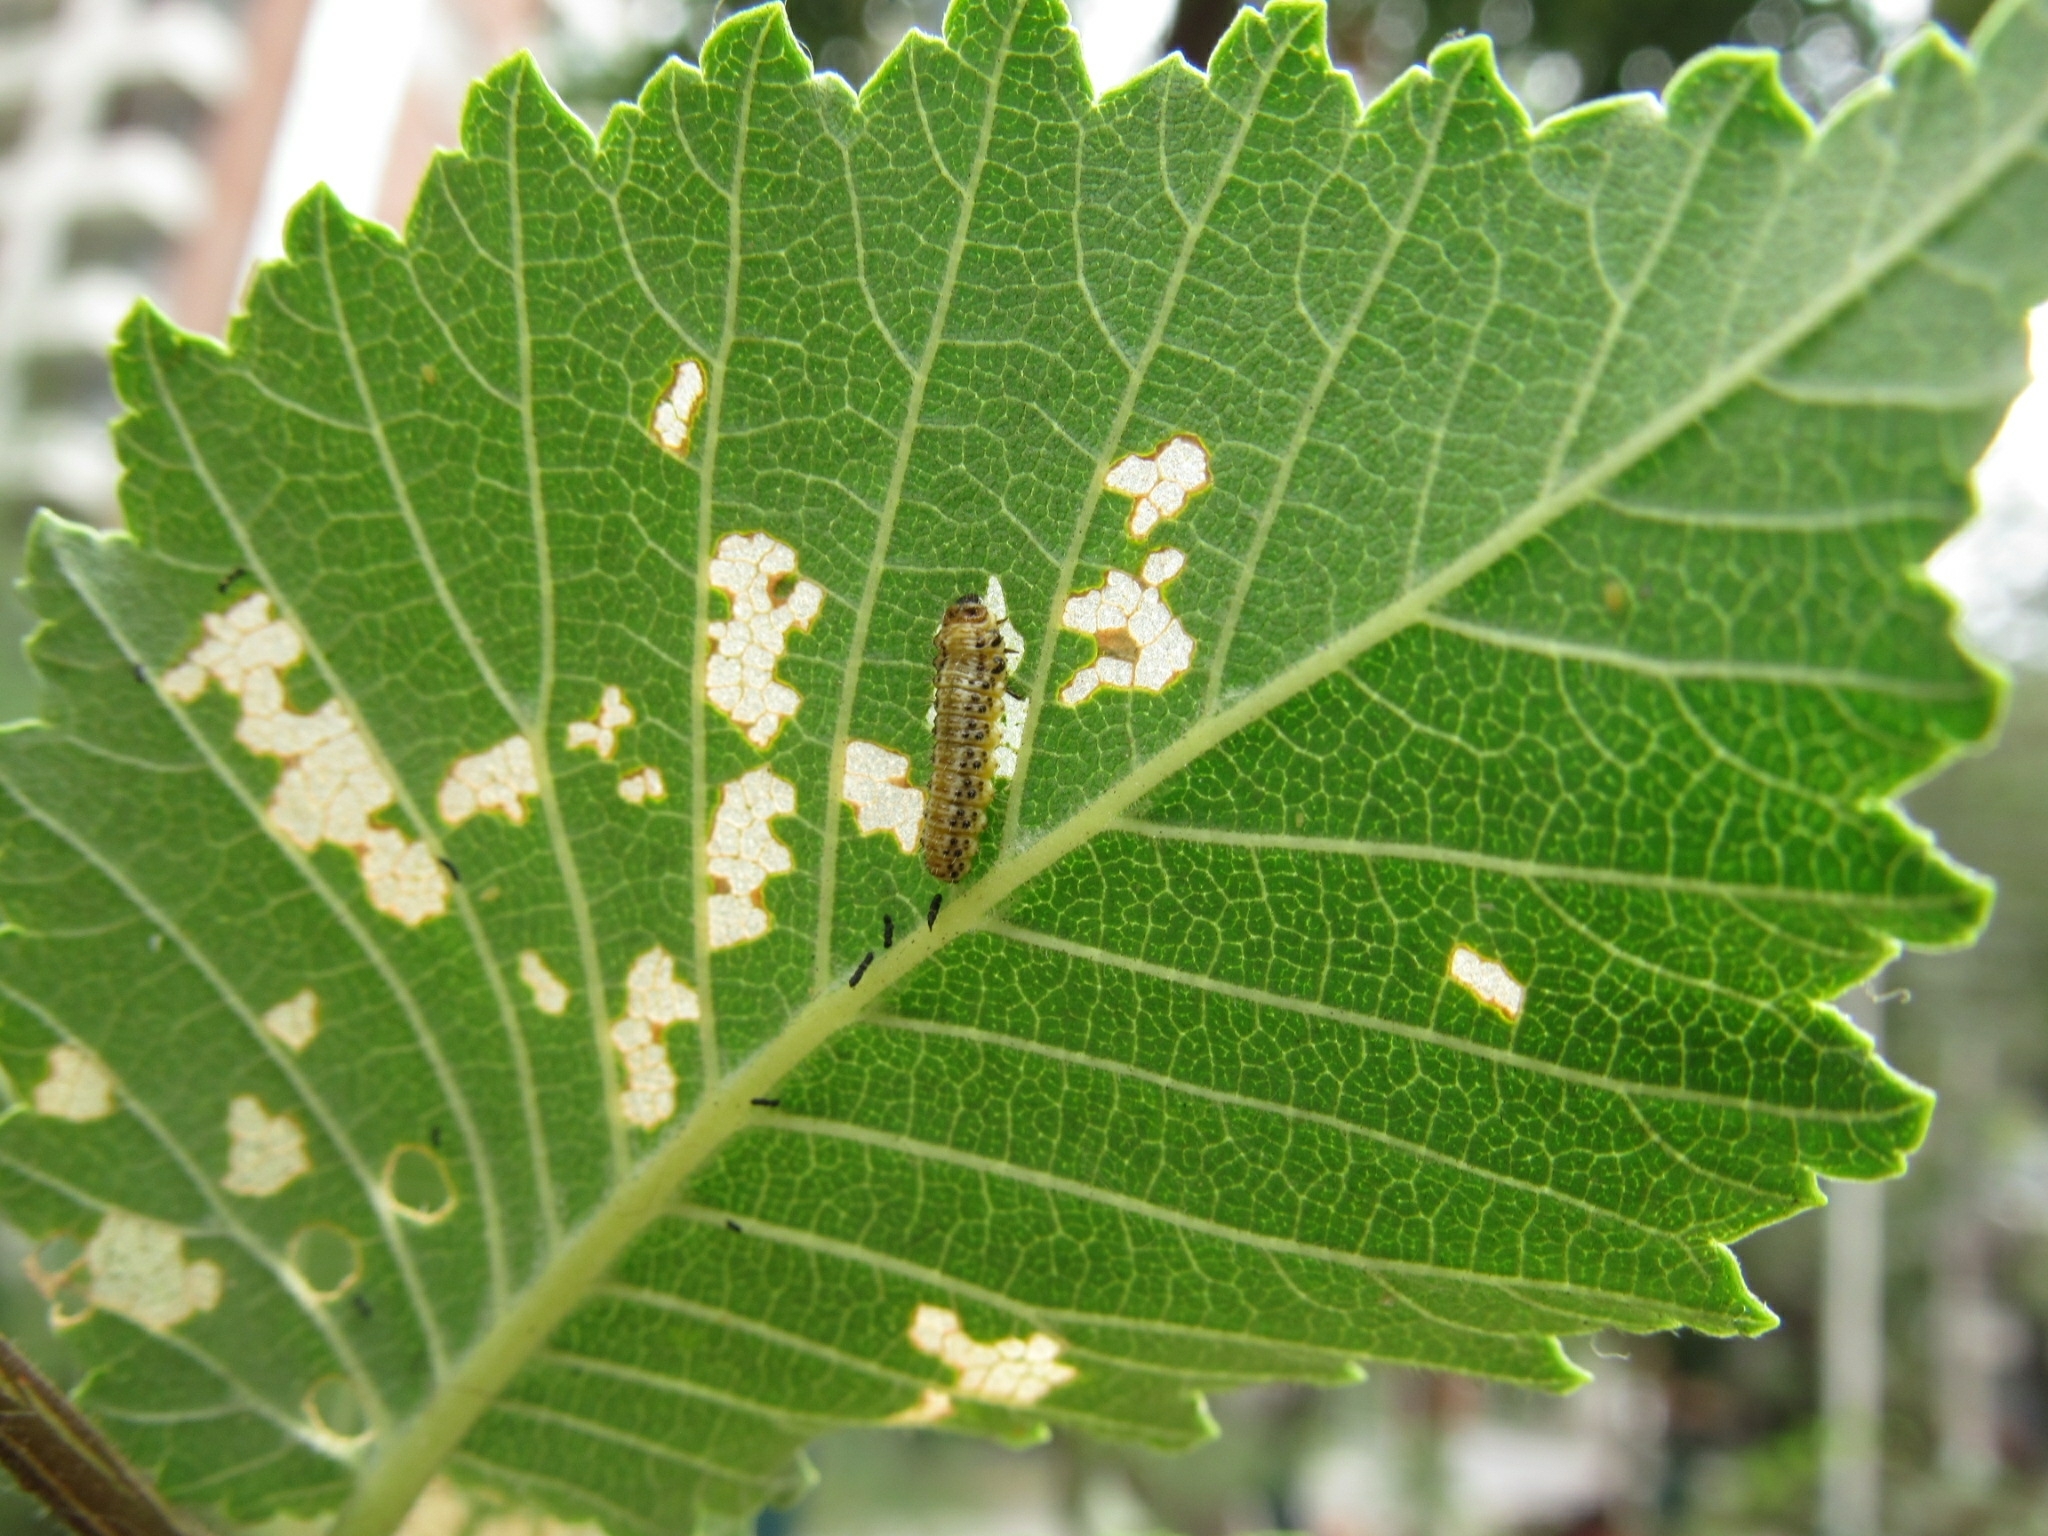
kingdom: Animalia
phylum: Arthropoda
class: Insecta
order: Coleoptera
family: Chrysomelidae
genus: Xanthogaleruca
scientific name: Xanthogaleruca luteola
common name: Elm leaf beetle
